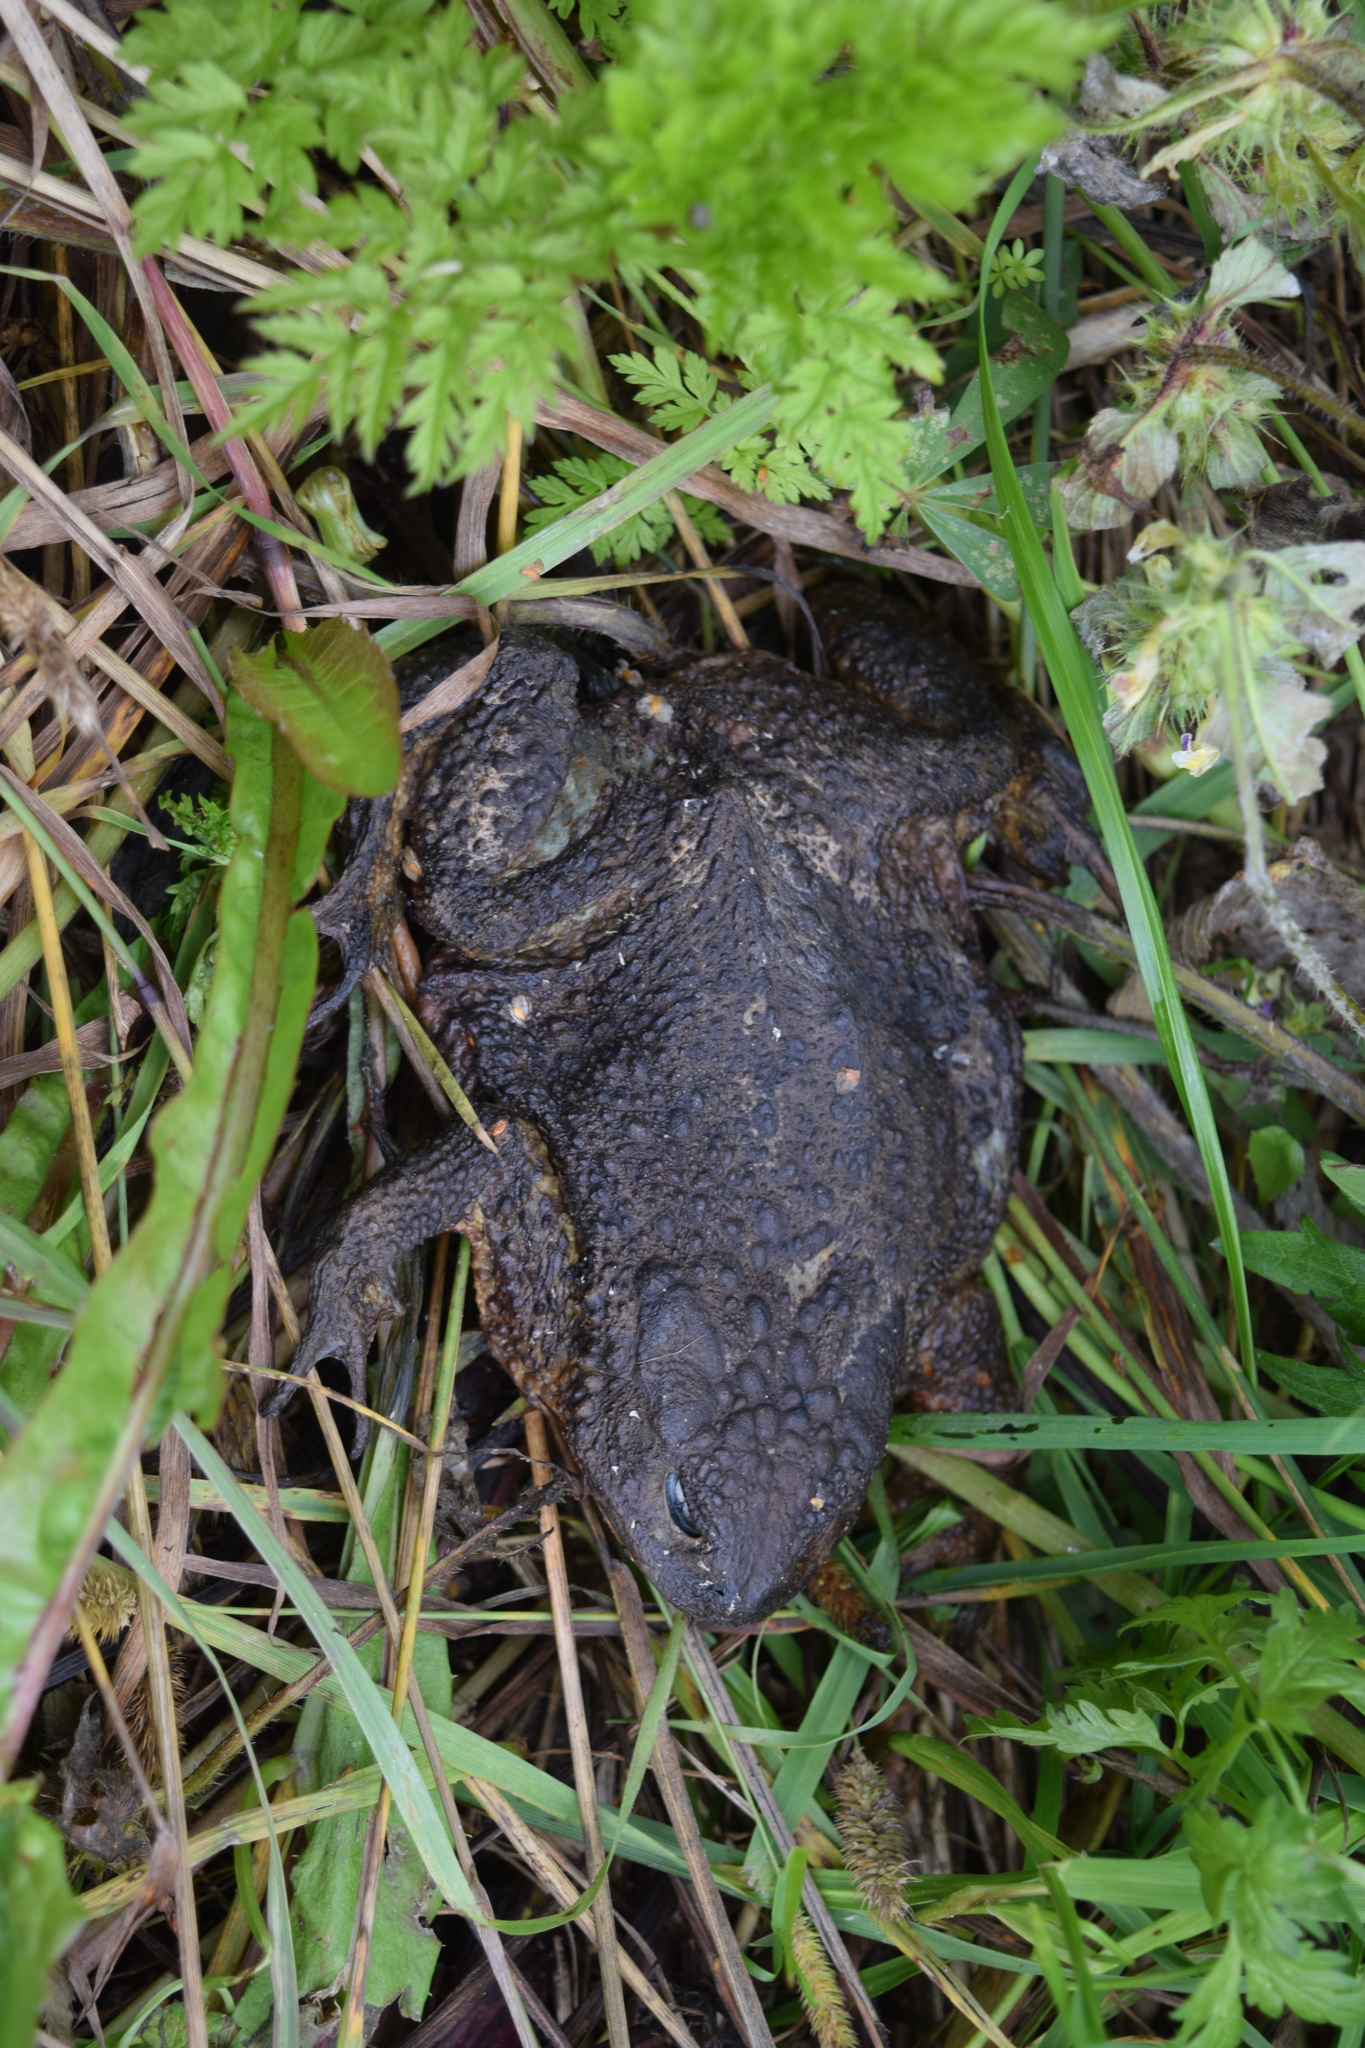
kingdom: Animalia
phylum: Chordata
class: Amphibia
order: Anura
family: Bufonidae
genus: Bufo
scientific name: Bufo bufo
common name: Common toad
